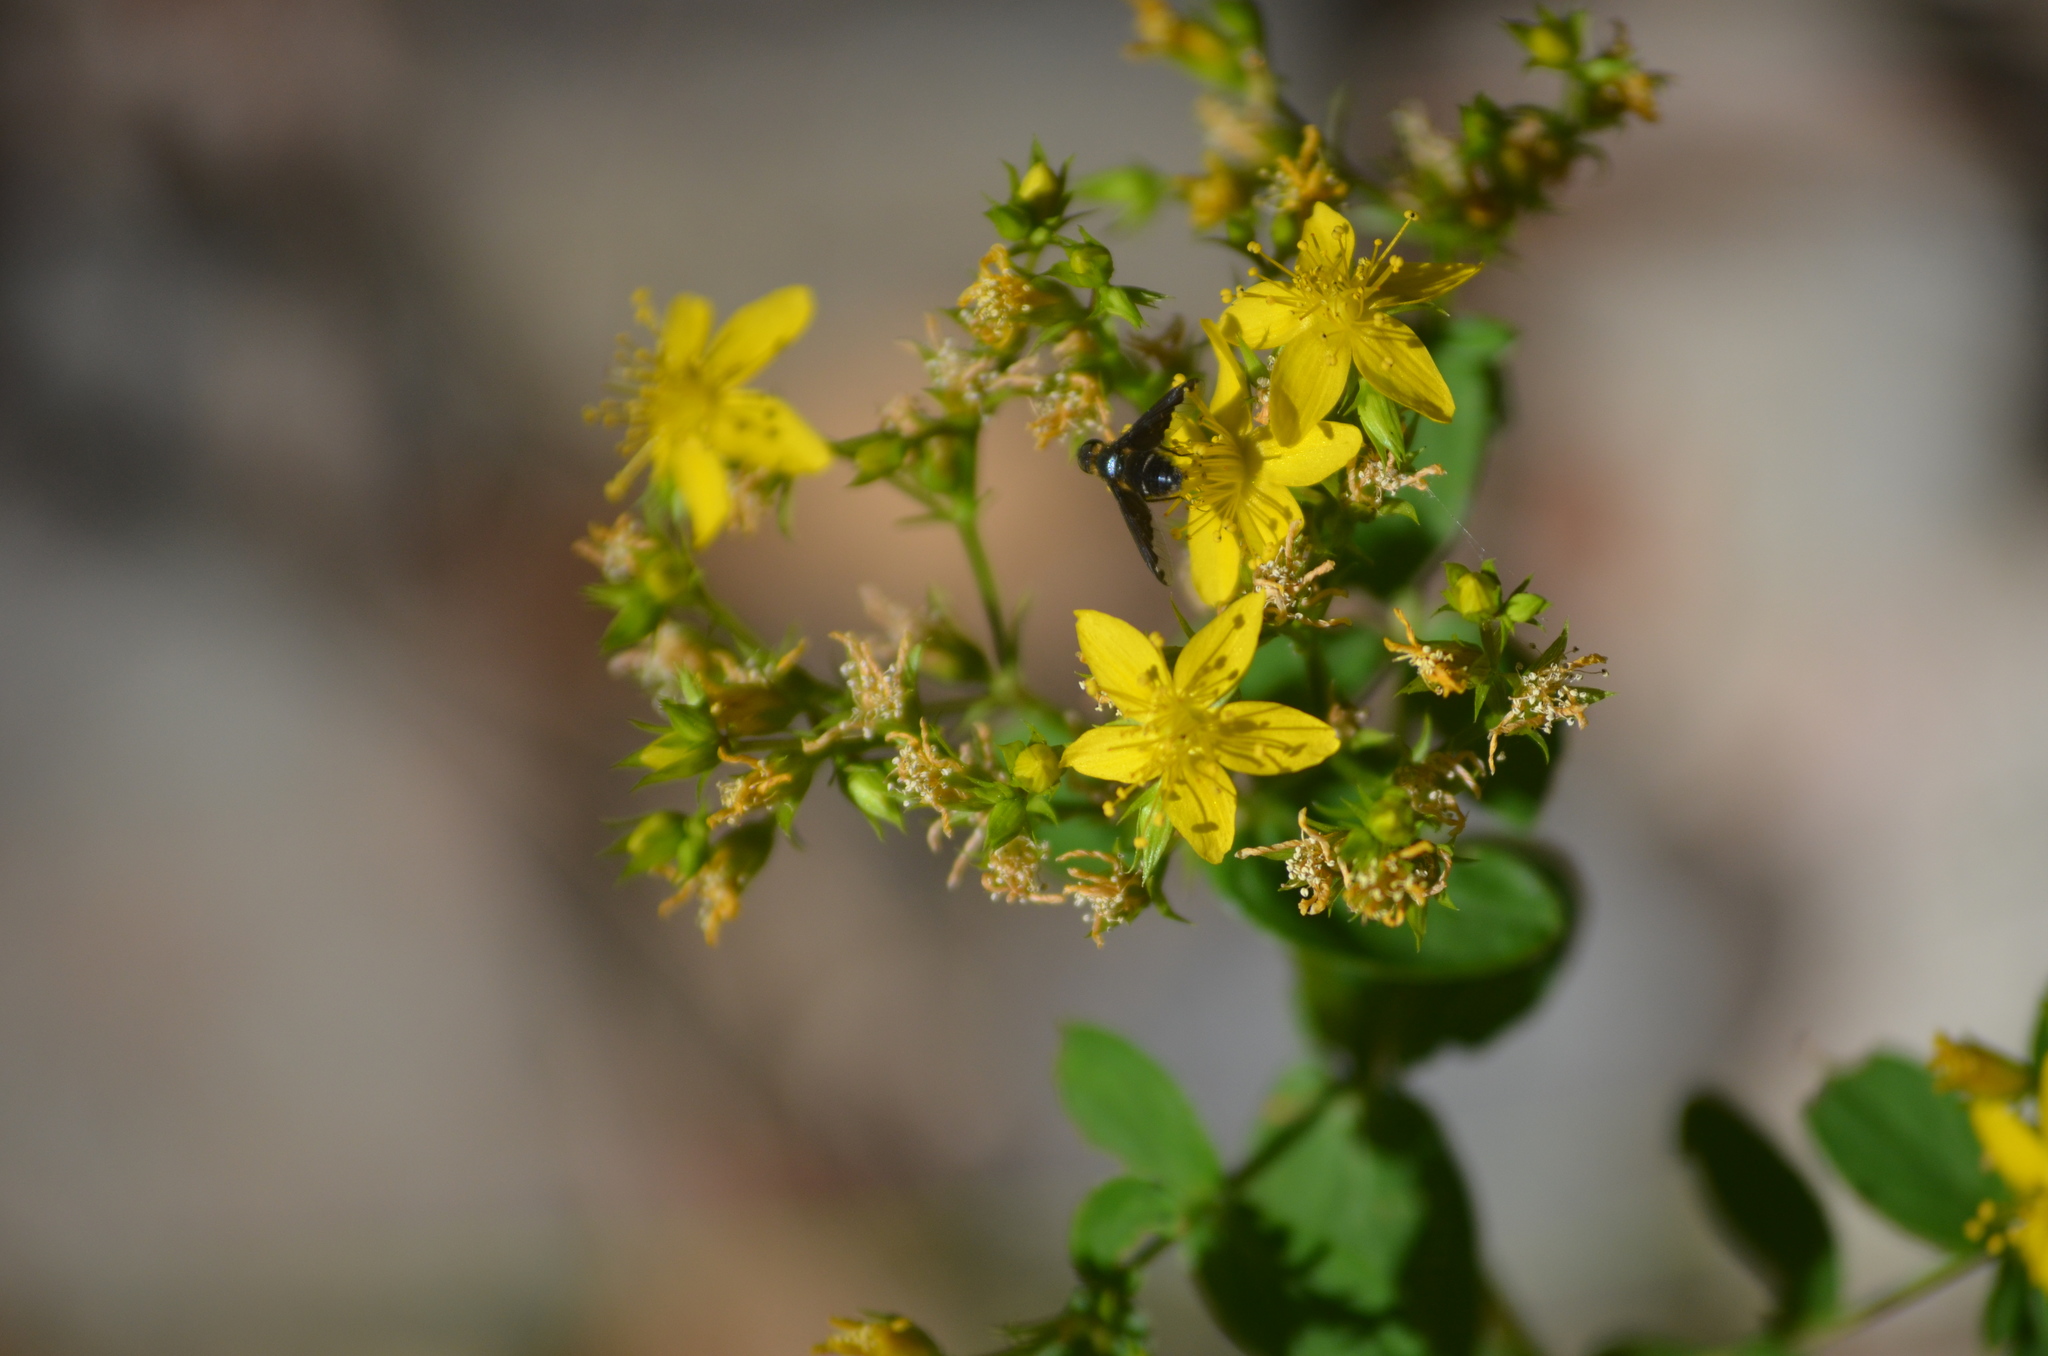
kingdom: Plantae
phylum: Tracheophyta
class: Magnoliopsida
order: Malpighiales
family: Hypericaceae
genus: Hypericum
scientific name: Hypericum tetrapterum
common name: Square-stalked st. john's-wort
